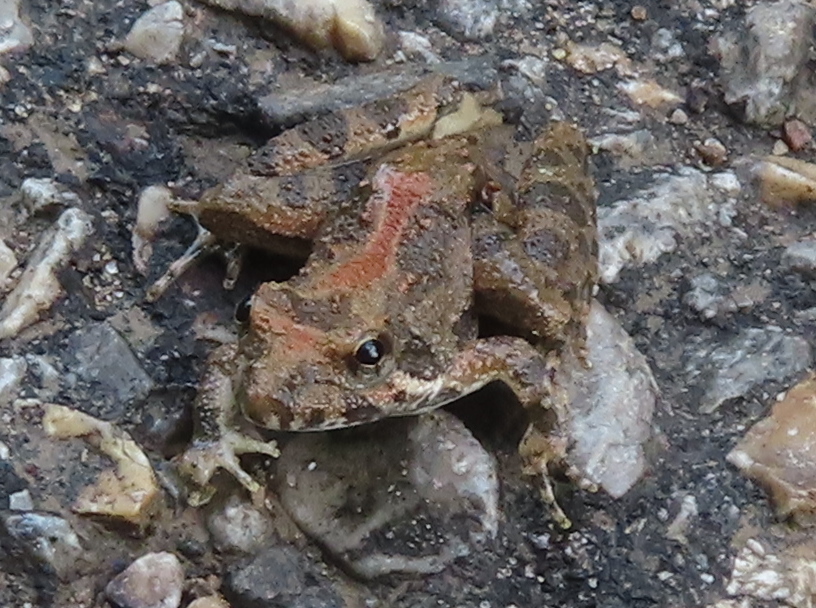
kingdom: Animalia
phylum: Chordata
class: Amphibia
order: Anura
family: Hylidae
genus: Acris
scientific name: Acris blanchardi
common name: Blanchard's cricket frog
